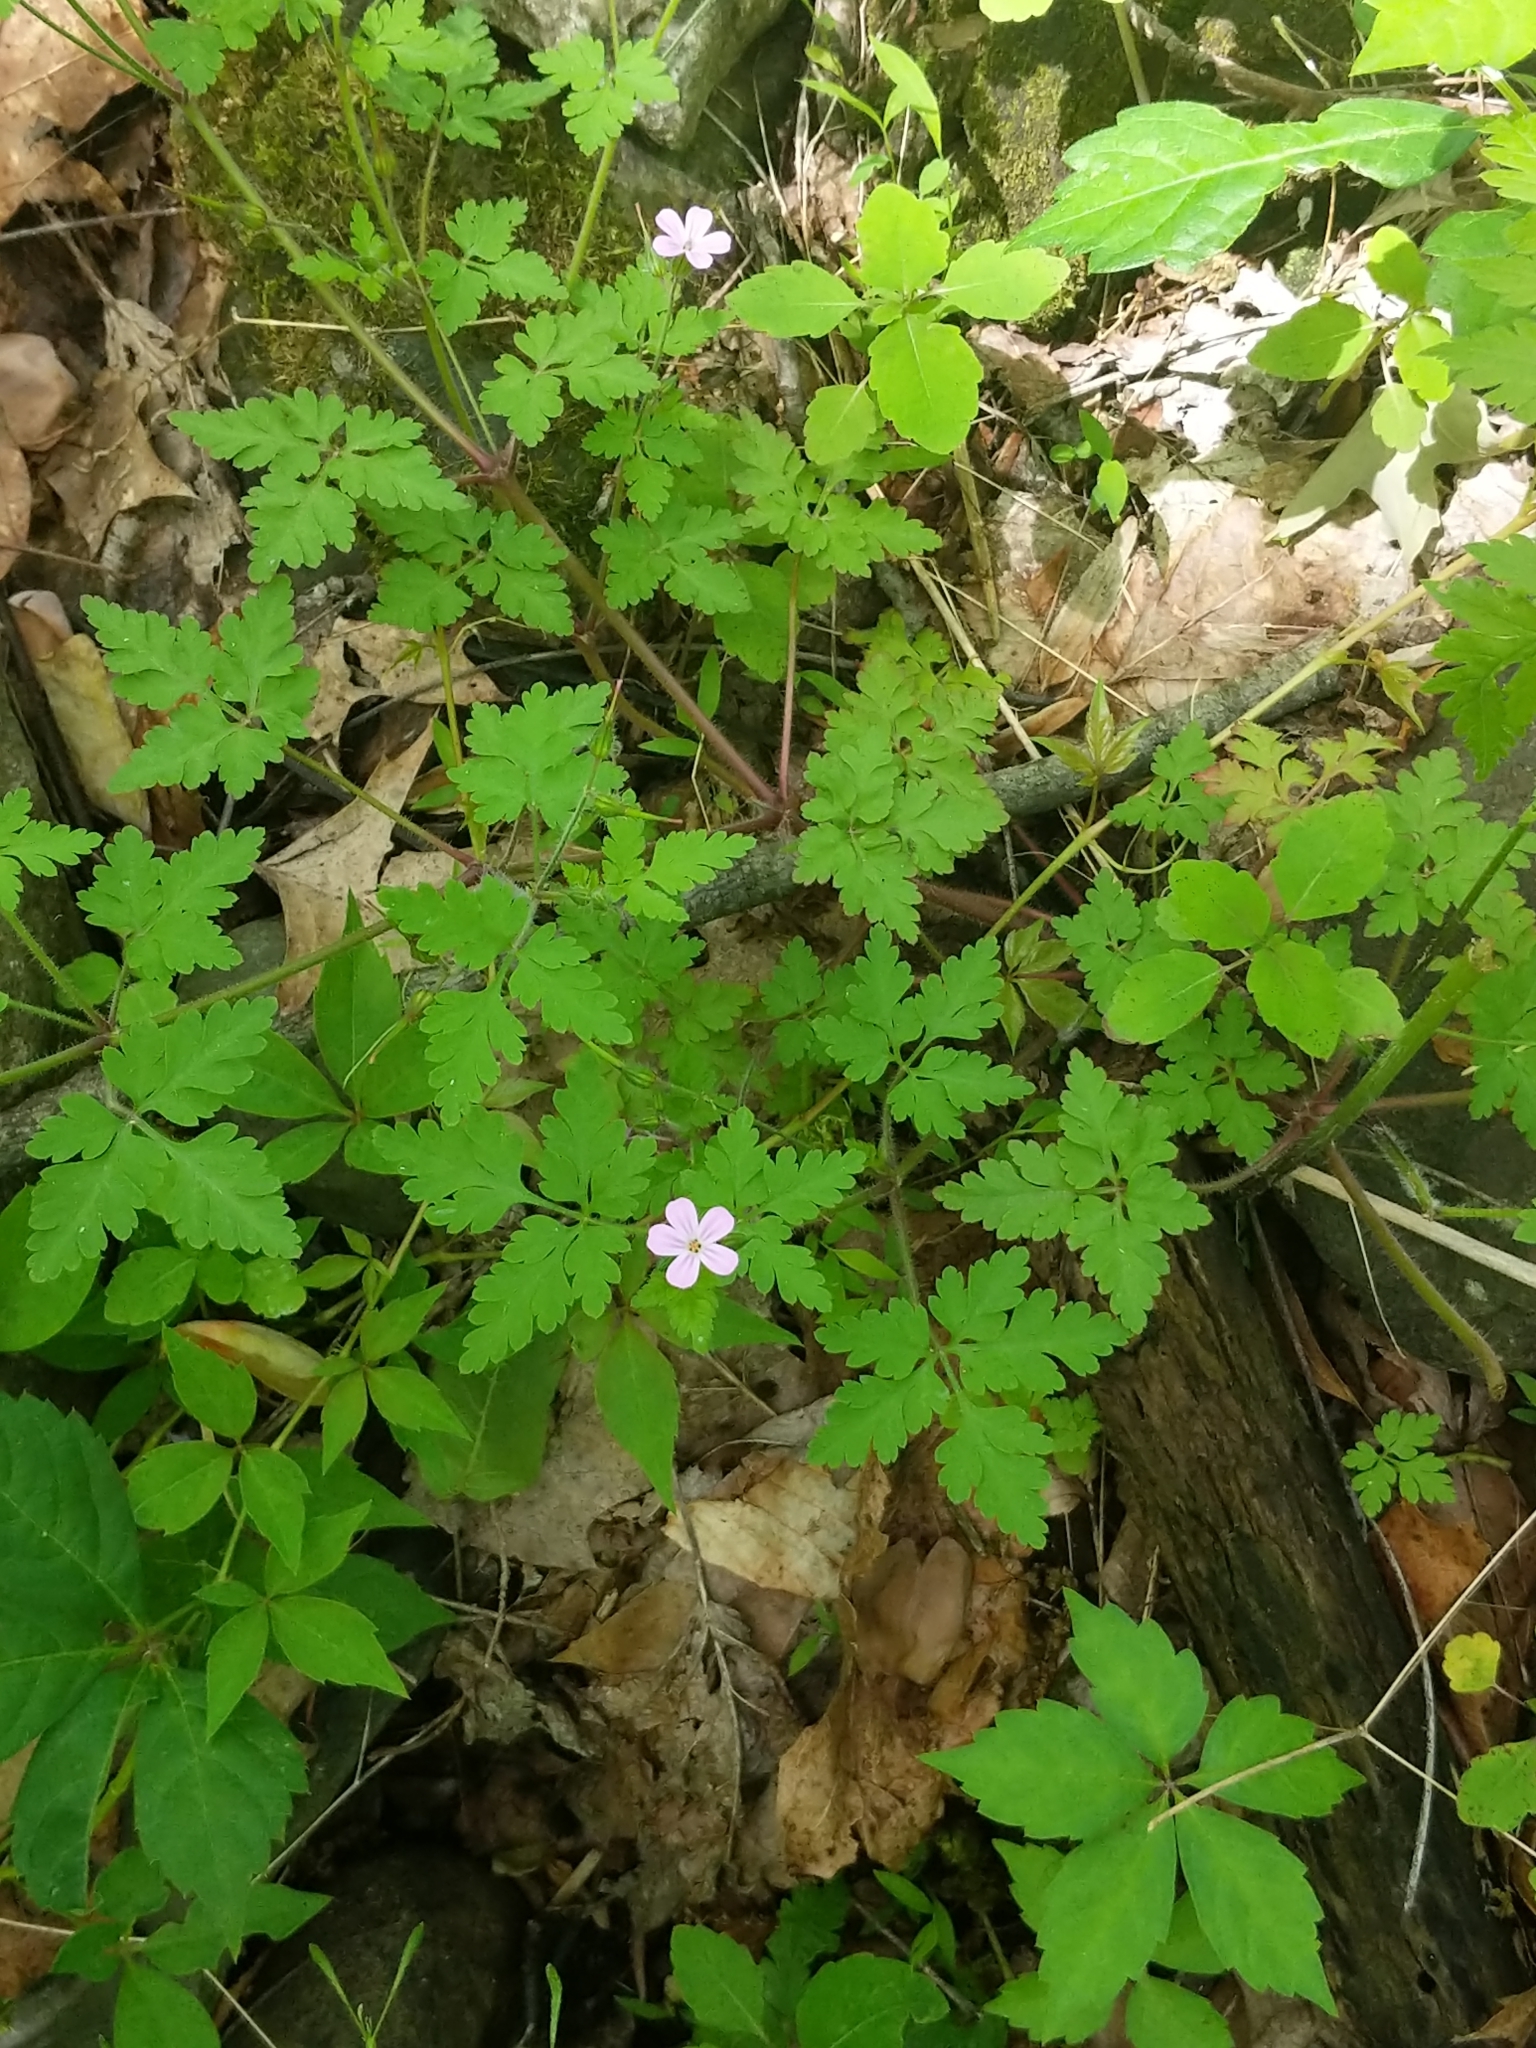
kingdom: Plantae
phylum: Tracheophyta
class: Magnoliopsida
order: Geraniales
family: Geraniaceae
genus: Geranium
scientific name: Geranium robertianum
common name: Herb-robert
